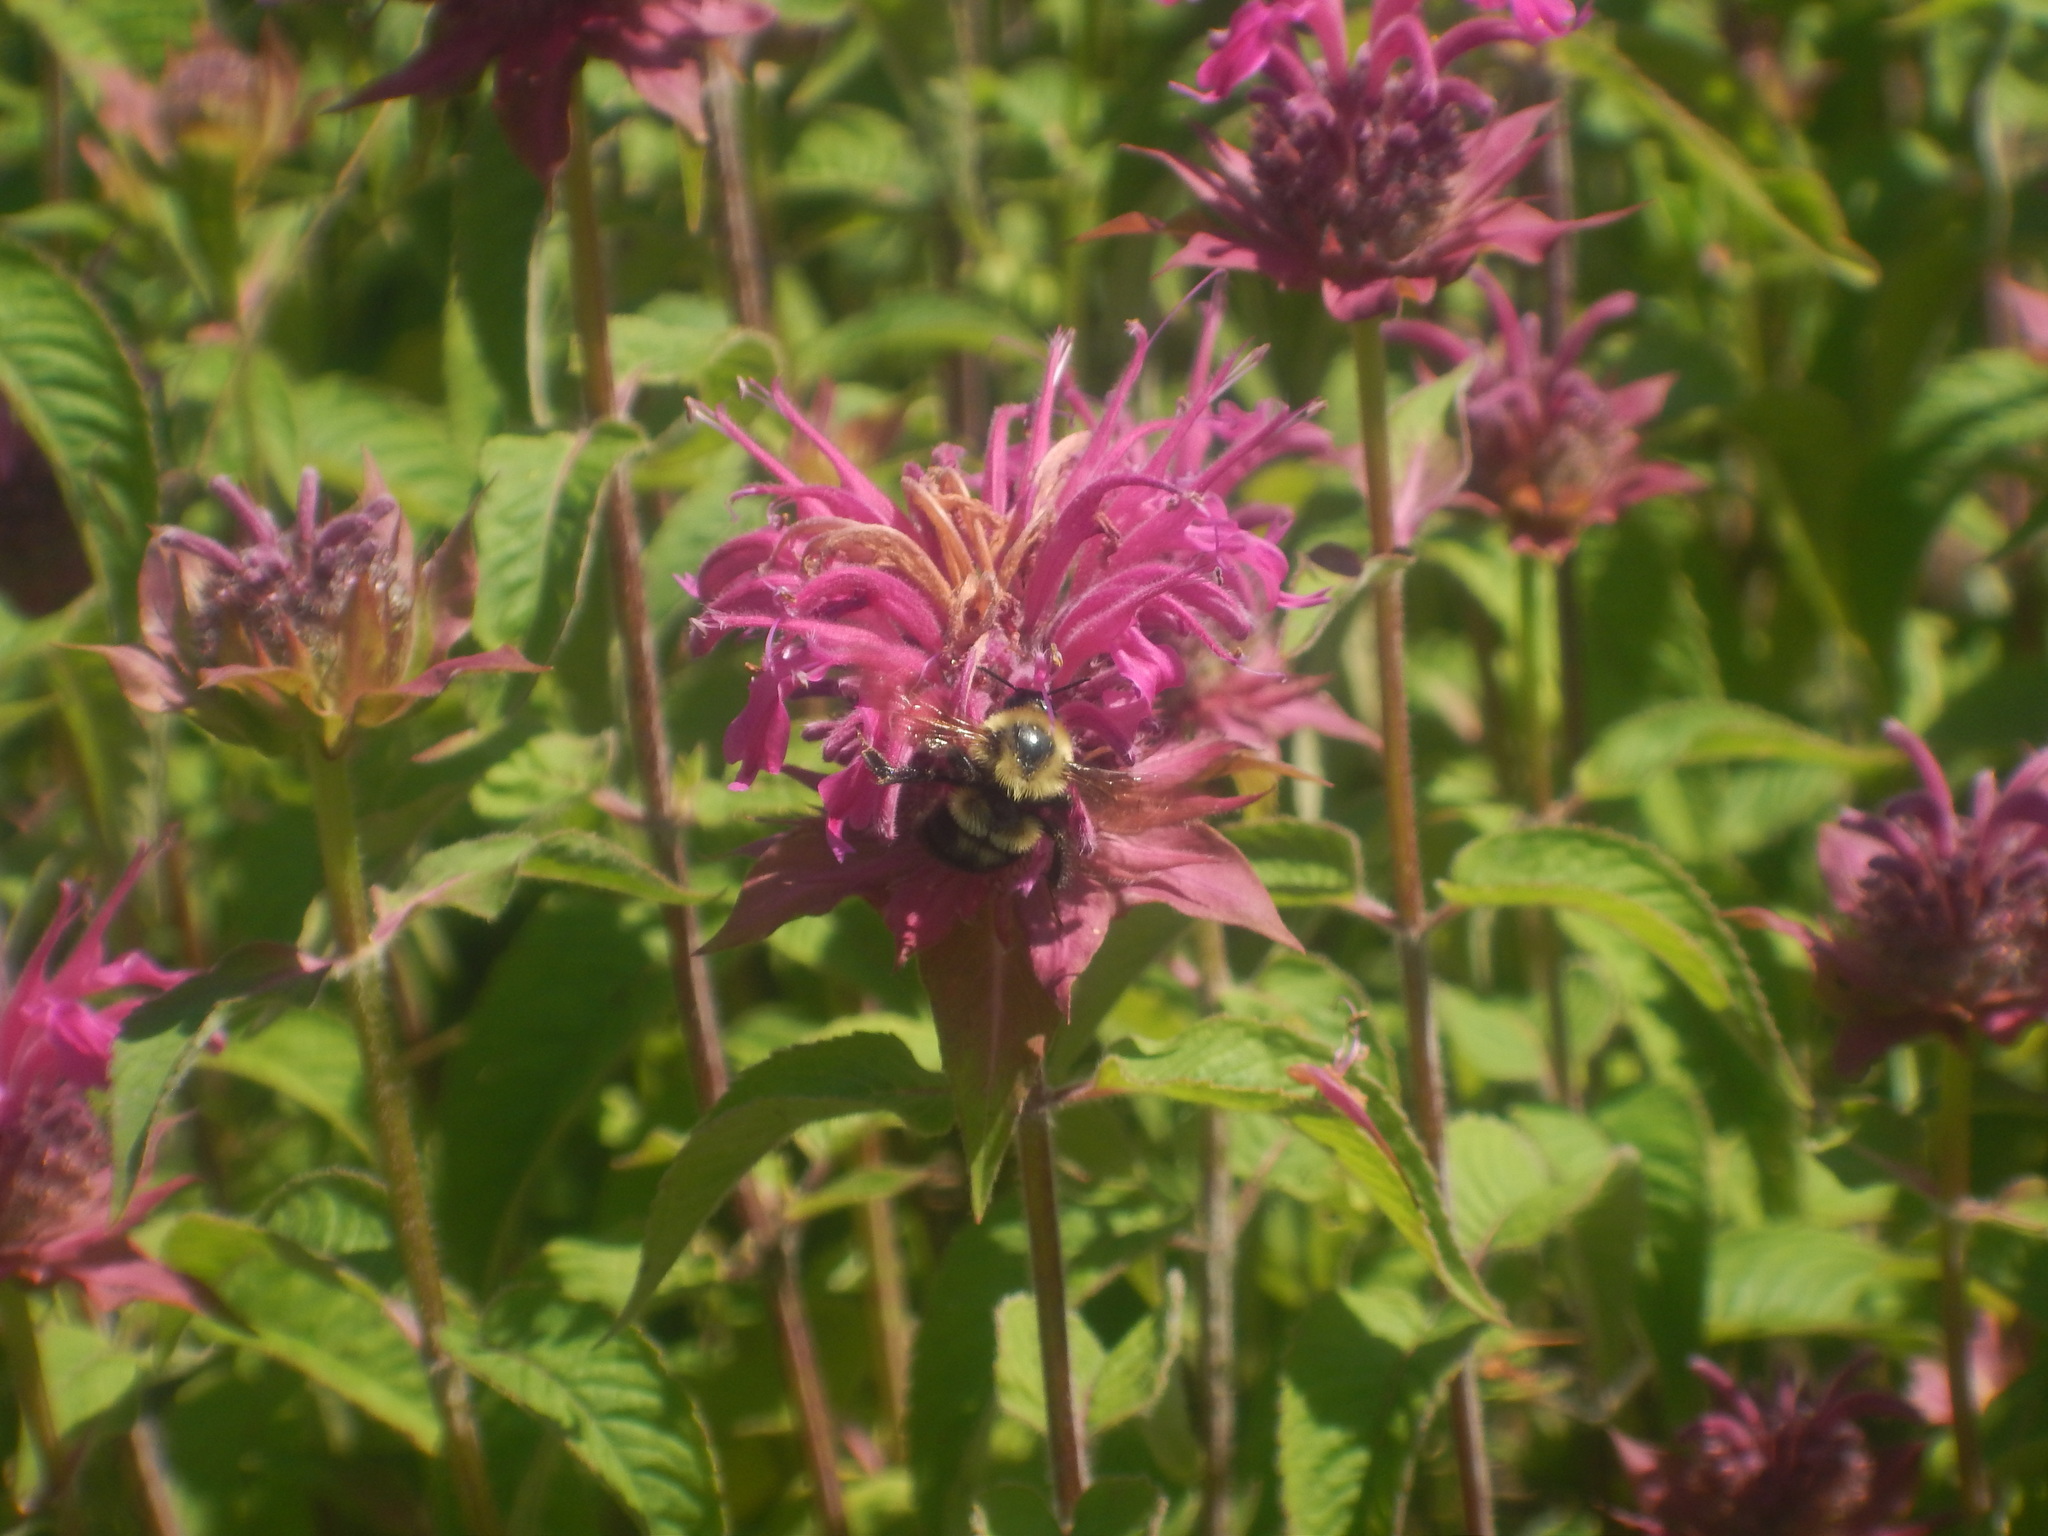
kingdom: Animalia
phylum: Arthropoda
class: Insecta
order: Hymenoptera
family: Apidae
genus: Bombus
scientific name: Bombus bimaculatus
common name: Two-spotted bumble bee
